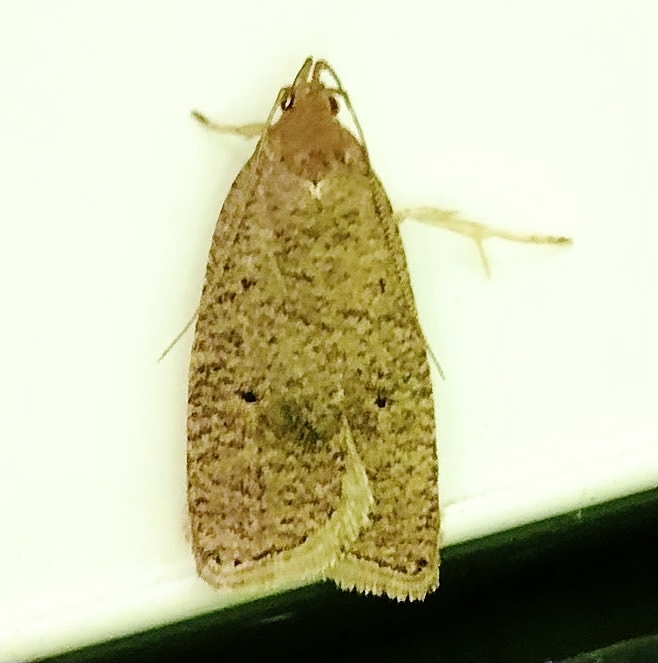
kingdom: Animalia
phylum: Arthropoda
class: Insecta
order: Lepidoptera
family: Depressariidae
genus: Psilocorsis
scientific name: Psilocorsis reflexella
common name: Dotted leaftier moth
